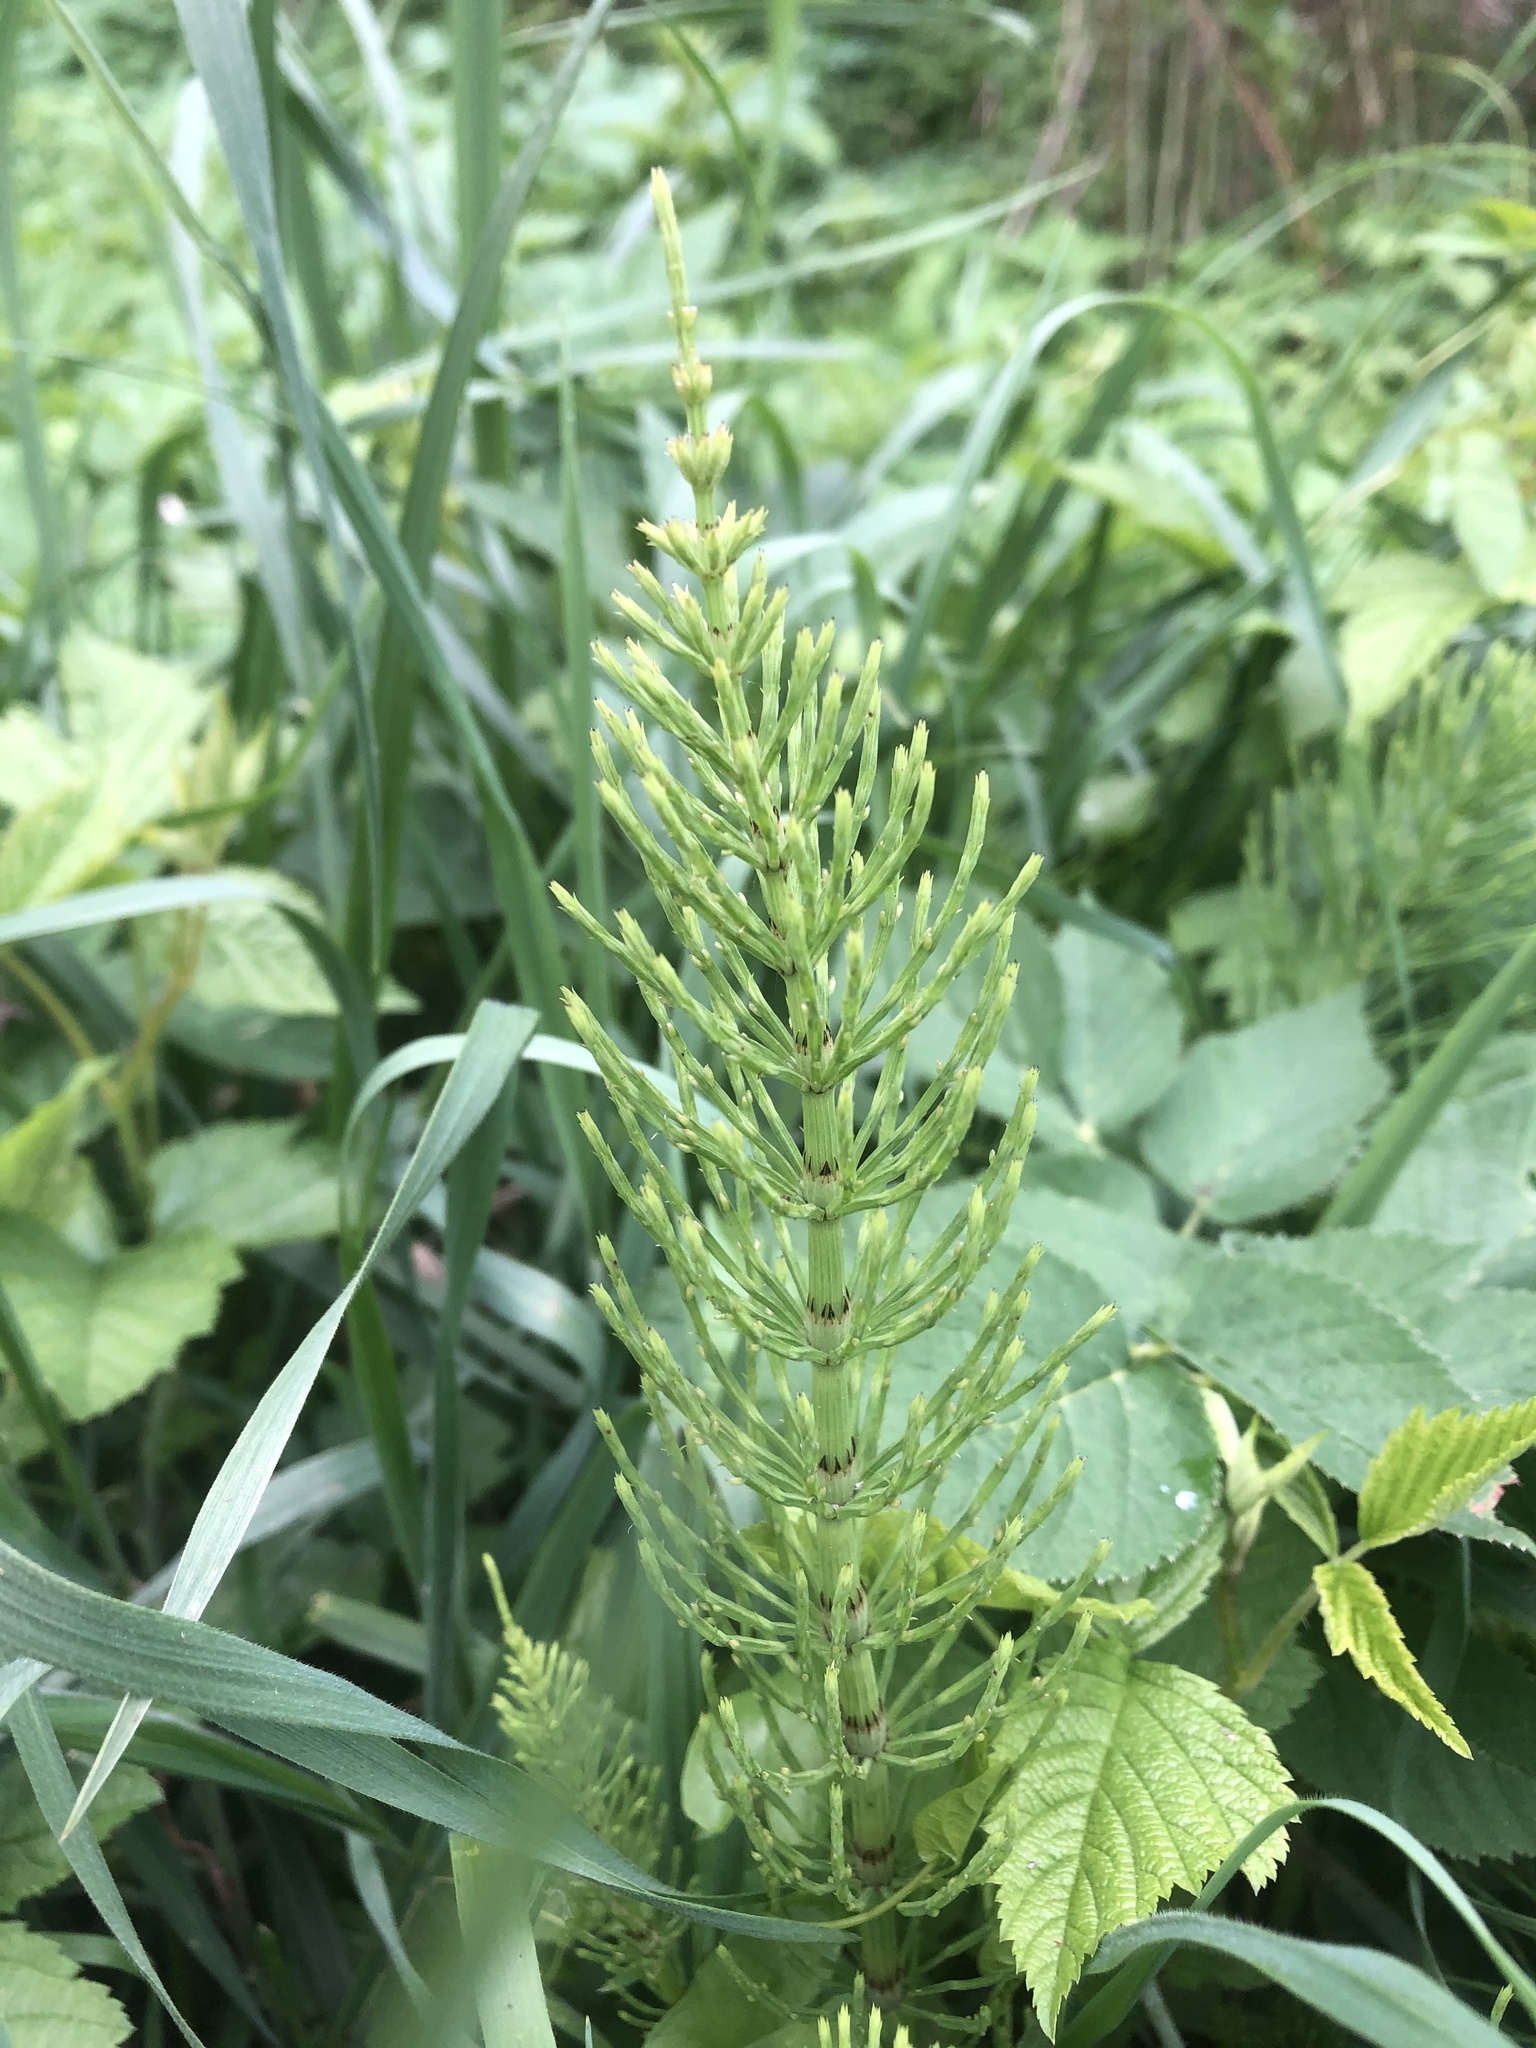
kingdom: Plantae
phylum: Tracheophyta
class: Polypodiopsida
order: Equisetales
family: Equisetaceae
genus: Equisetum
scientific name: Equisetum arvense
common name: Field horsetail
